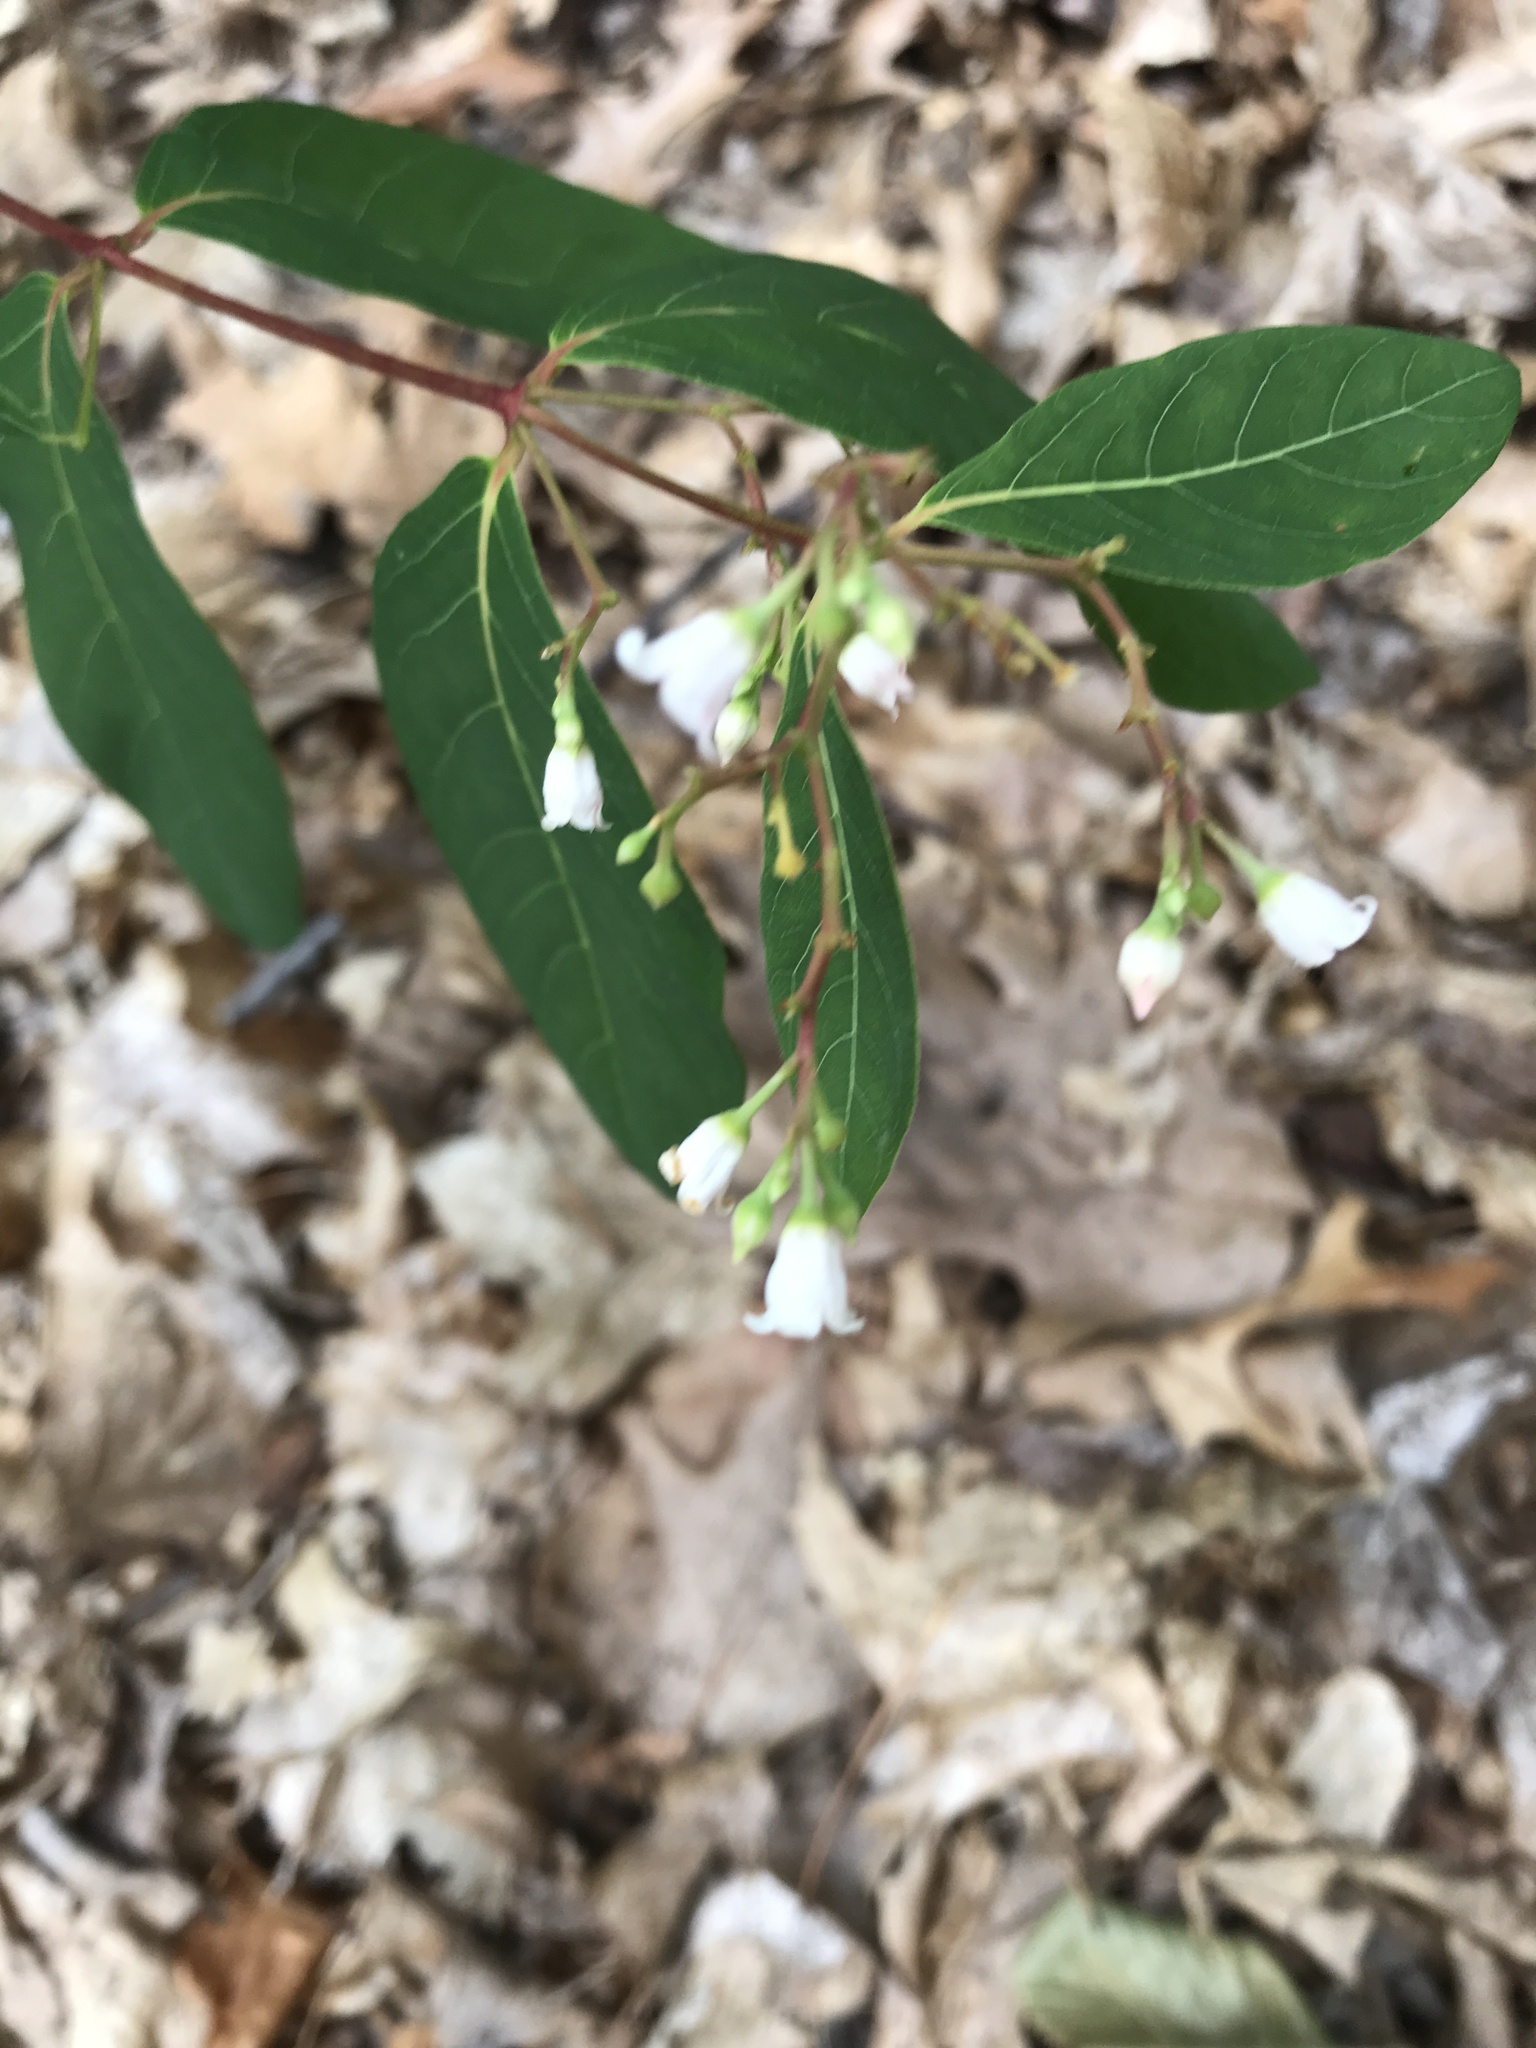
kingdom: Plantae
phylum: Tracheophyta
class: Magnoliopsida
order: Gentianales
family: Apocynaceae
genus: Apocynum
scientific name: Apocynum androsaemifolium
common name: Spreading dogbane
